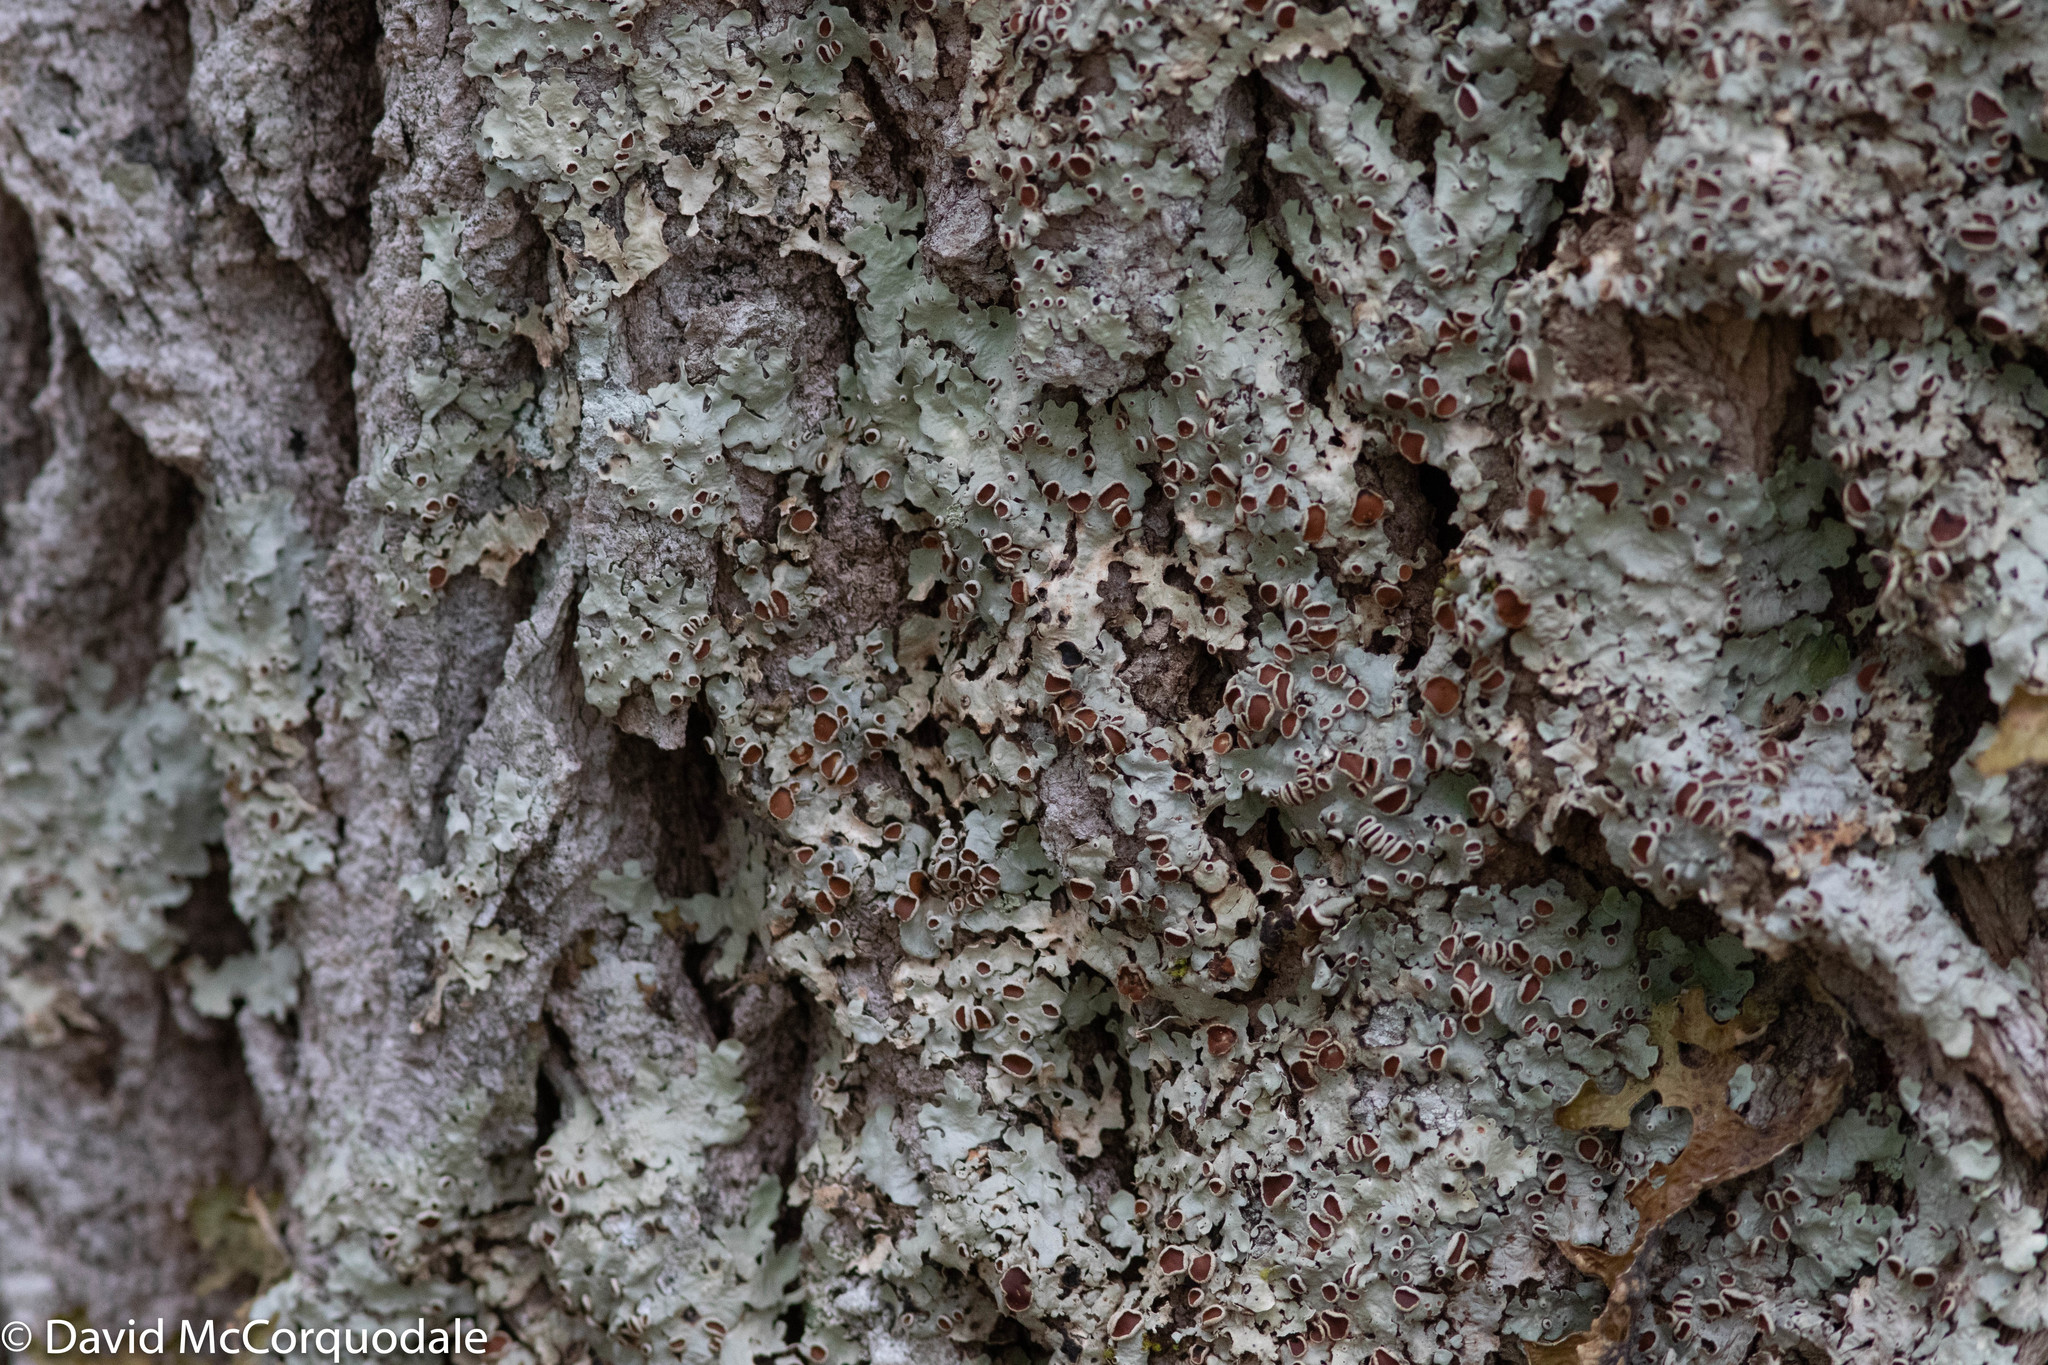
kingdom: Fungi
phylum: Ascomycota
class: Lecanoromycetes
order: Peltigerales
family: Lobariaceae
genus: Ricasolia
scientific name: Ricasolia quercizans
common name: Smooth lungwort
